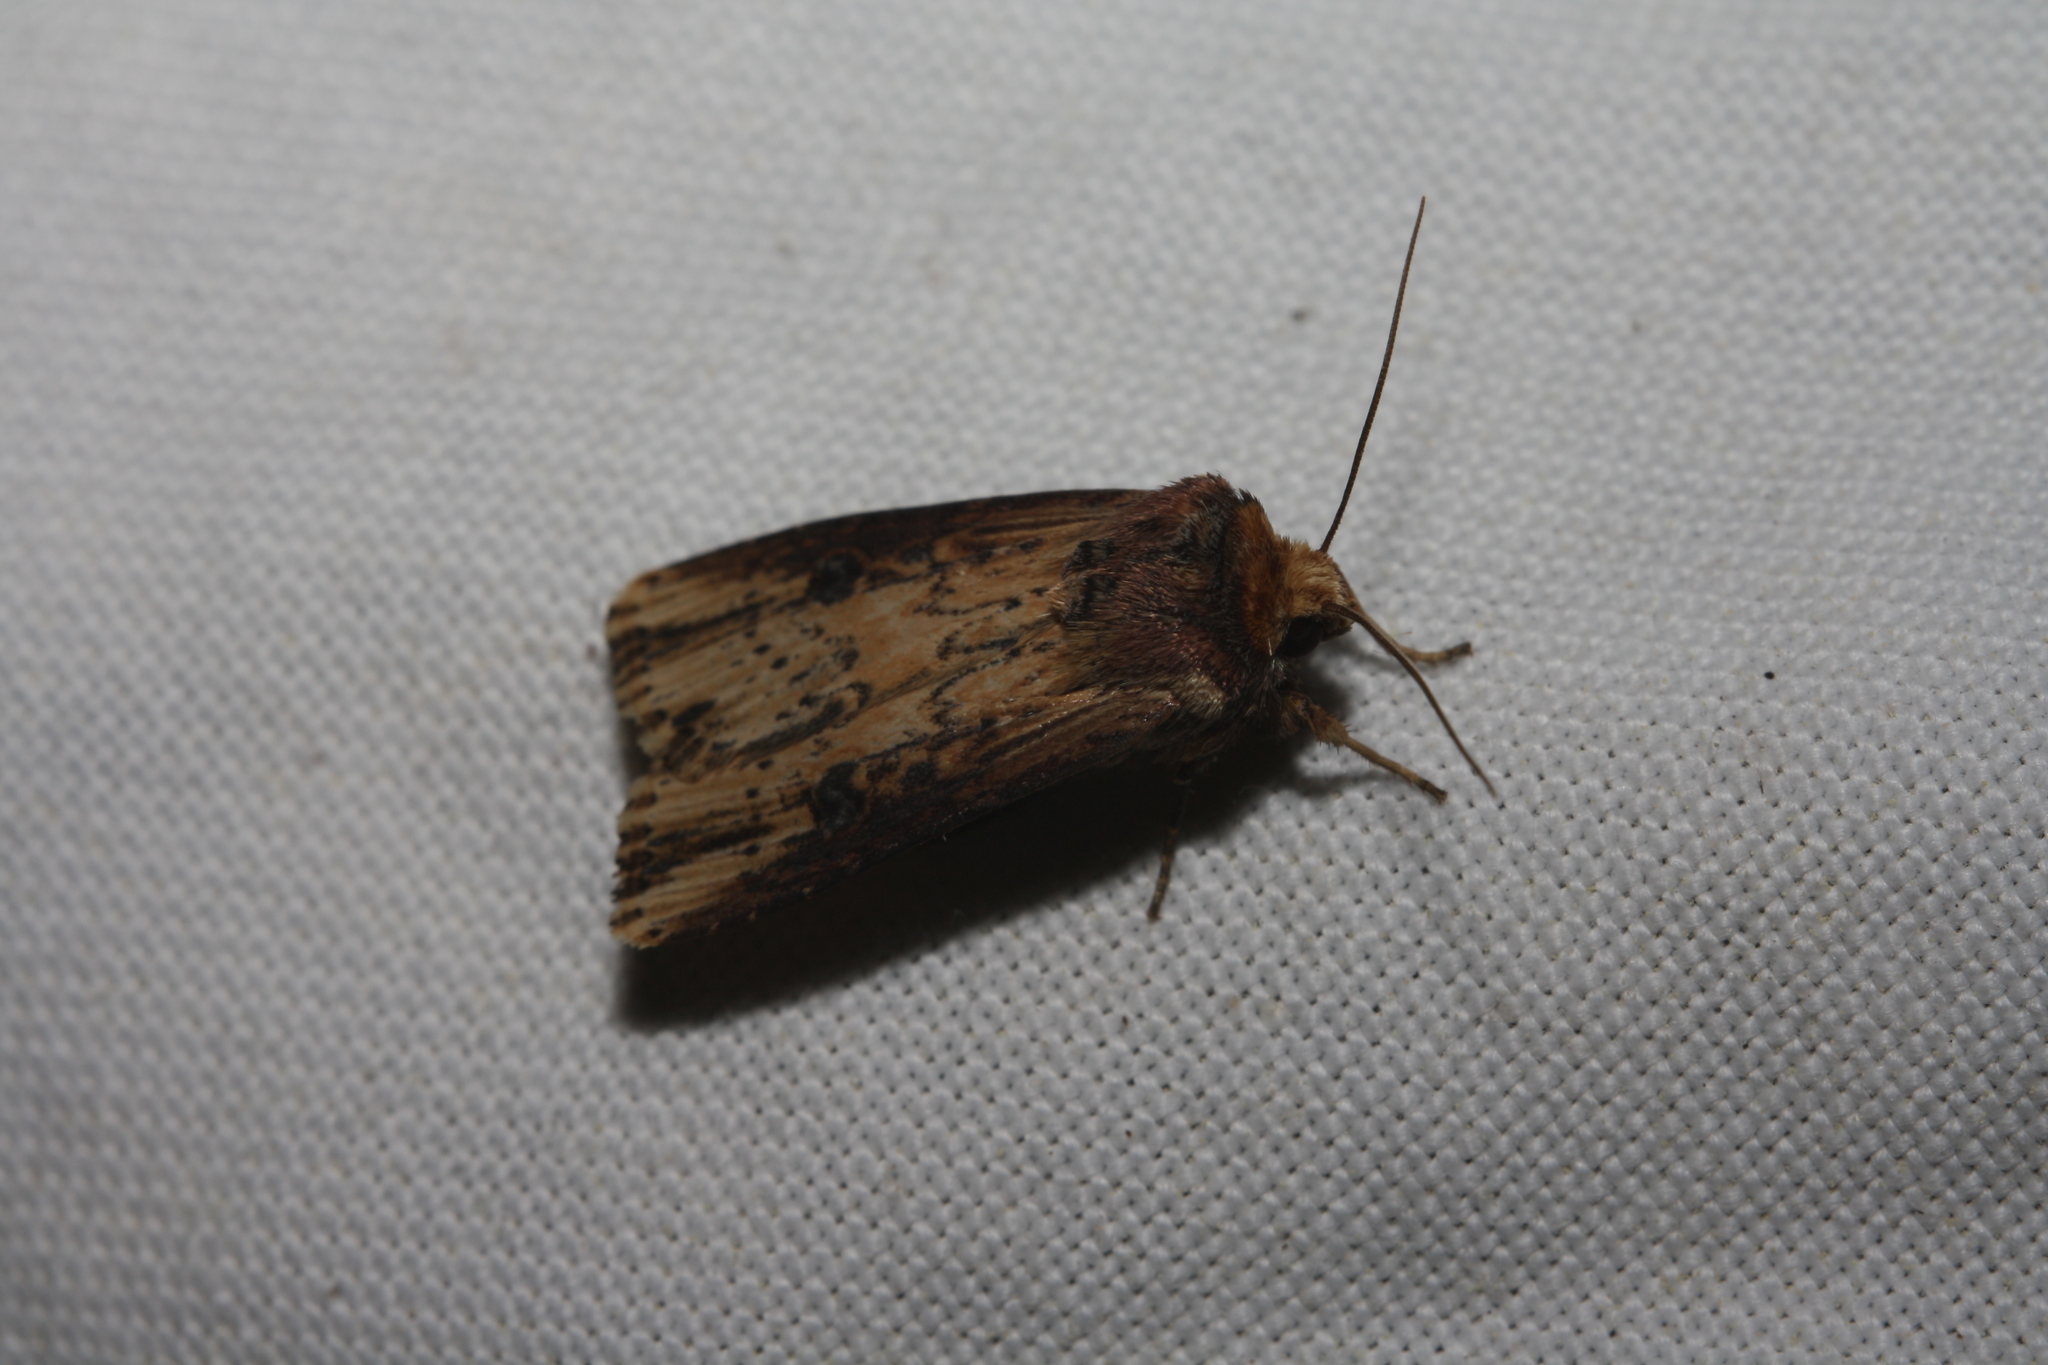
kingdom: Animalia
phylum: Arthropoda
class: Insecta
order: Lepidoptera
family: Noctuidae
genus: Axylia
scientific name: Axylia putris
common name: Flame
